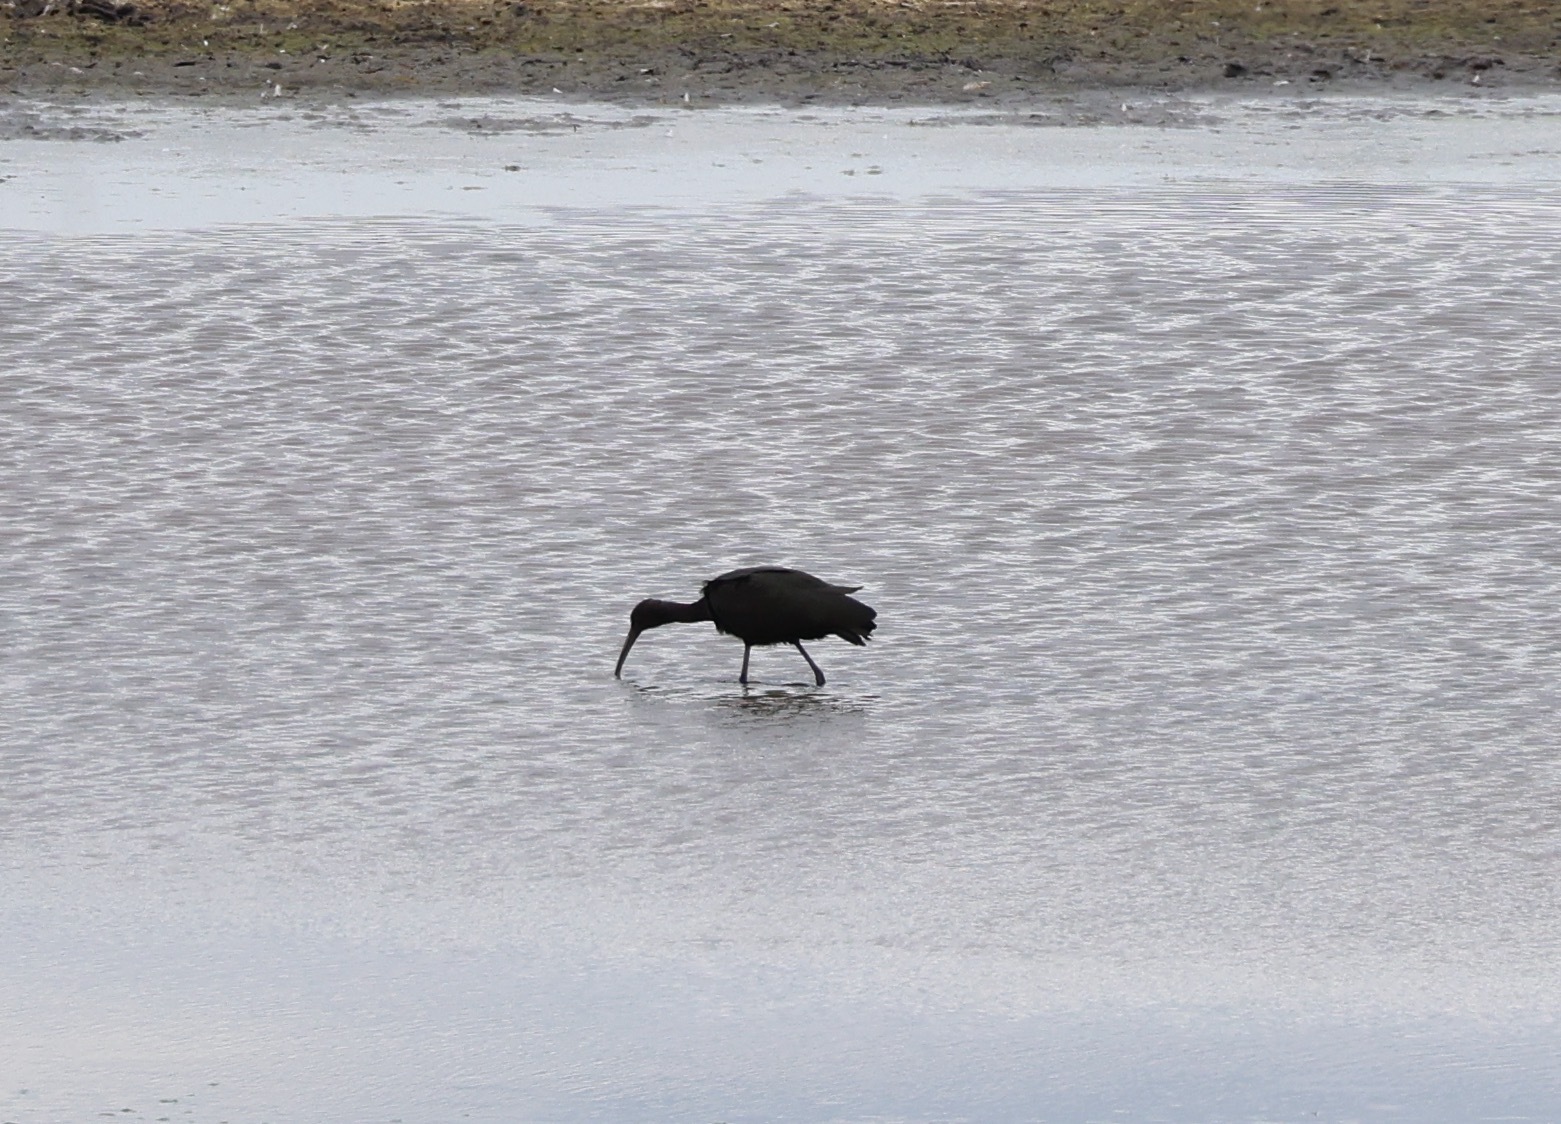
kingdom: Animalia
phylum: Chordata
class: Aves
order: Pelecaniformes
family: Threskiornithidae
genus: Plegadis
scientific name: Plegadis falcinellus
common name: Glossy ibis
